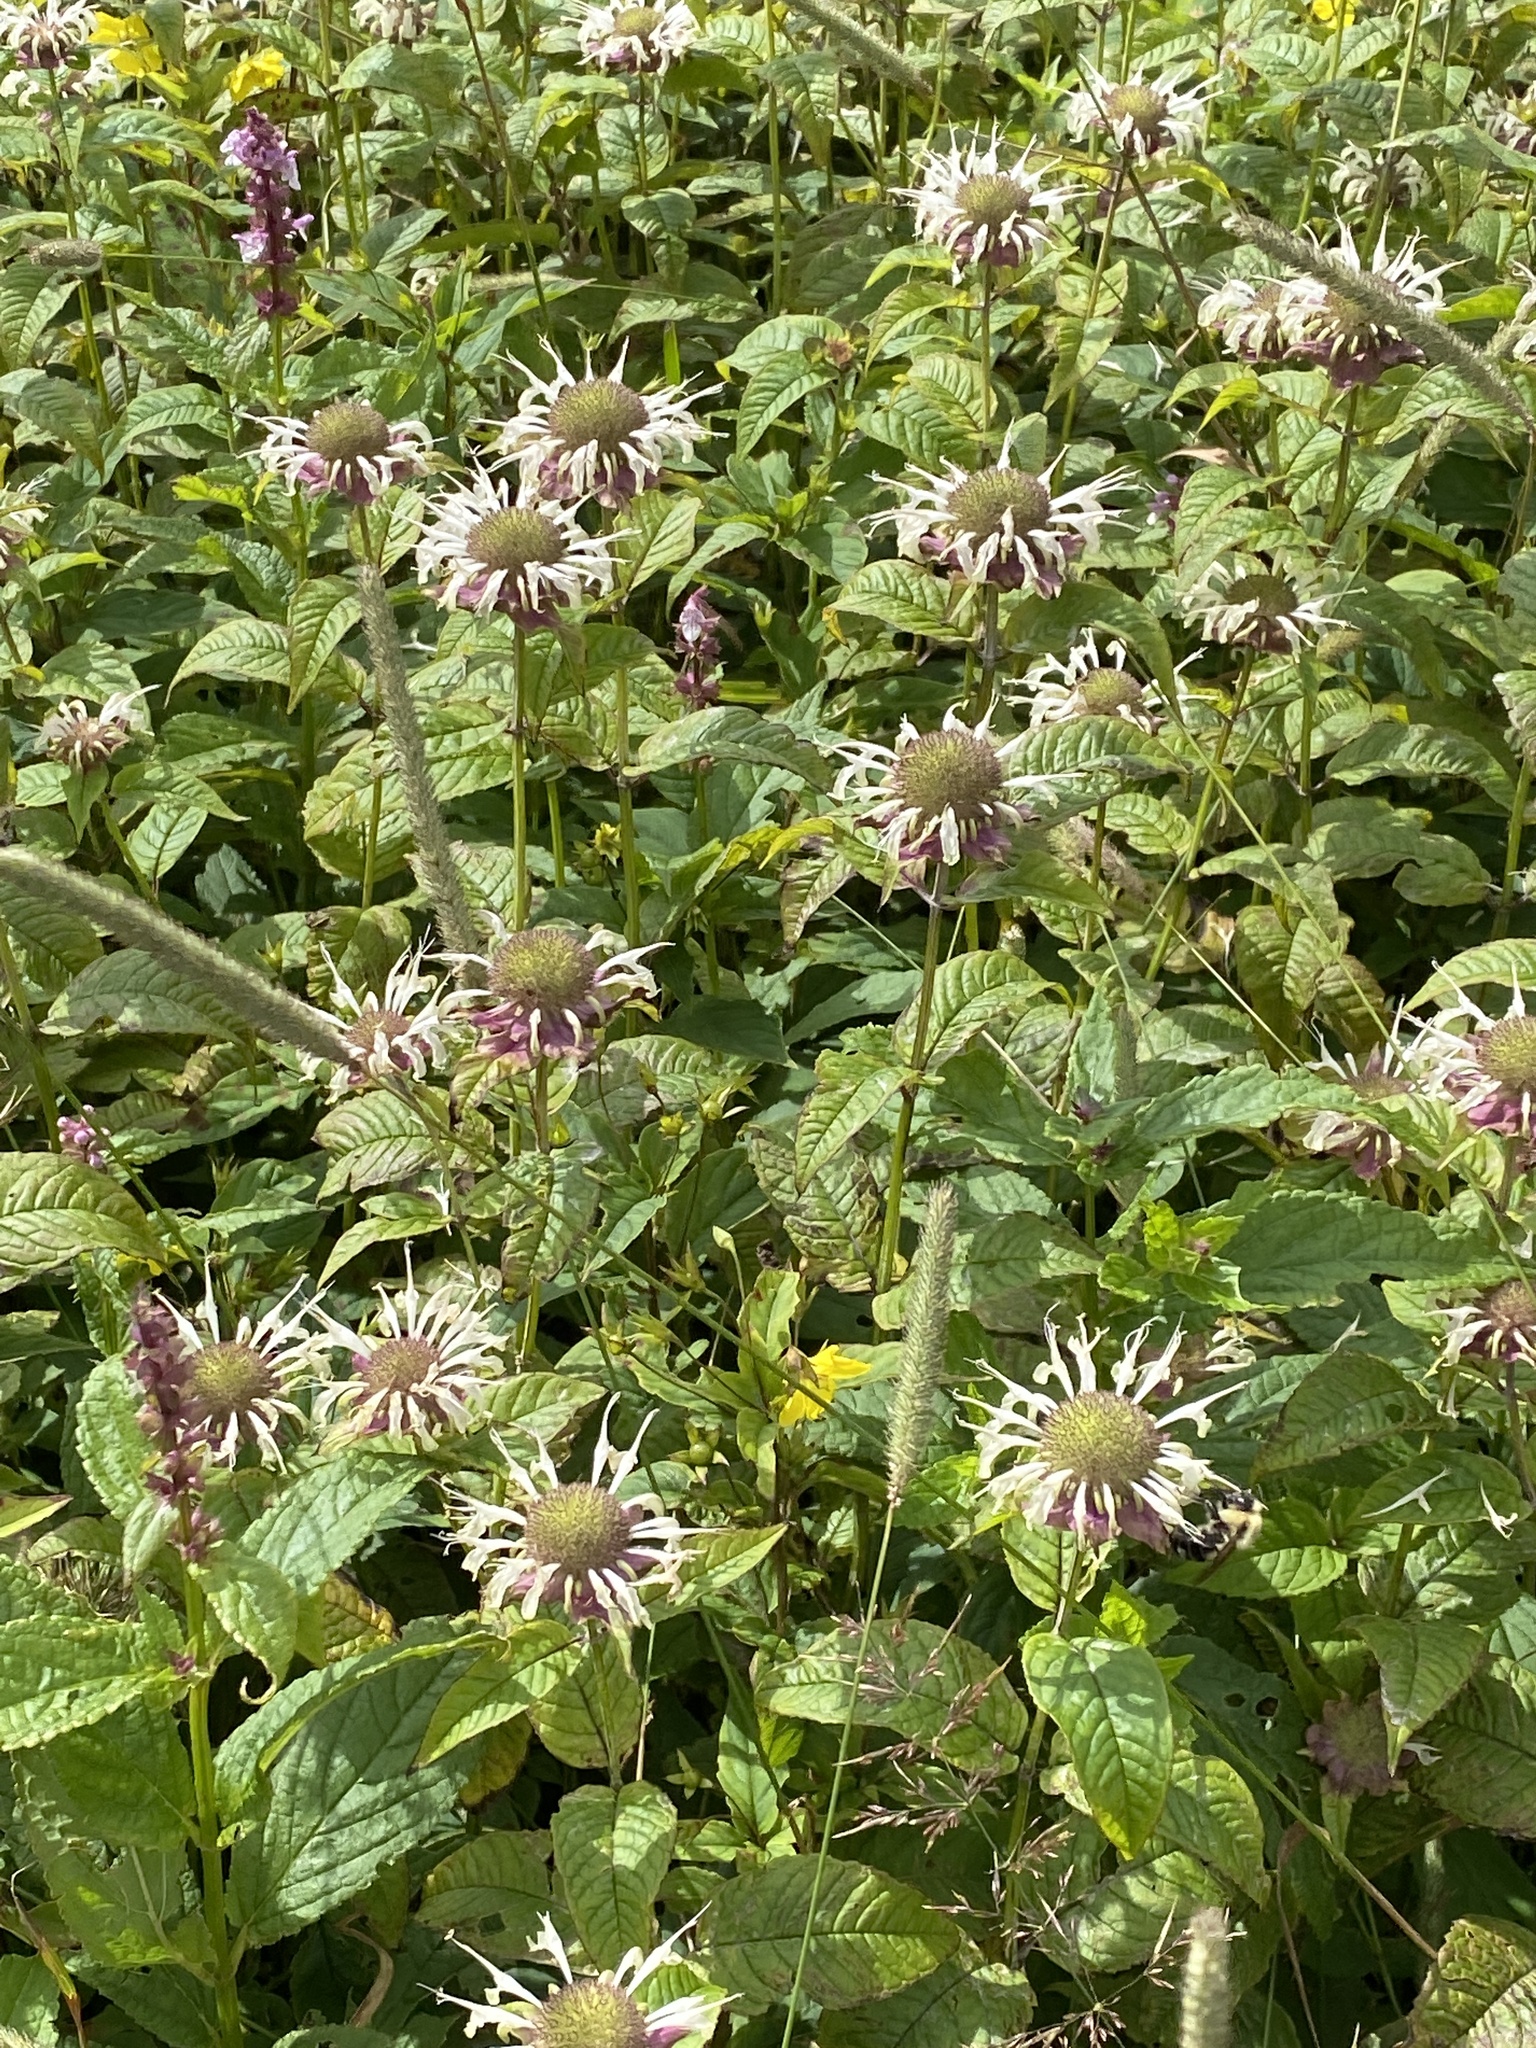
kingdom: Plantae
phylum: Tracheophyta
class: Magnoliopsida
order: Lamiales
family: Lamiaceae
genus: Monarda
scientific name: Monarda clinopodia
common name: Basil beebalm
